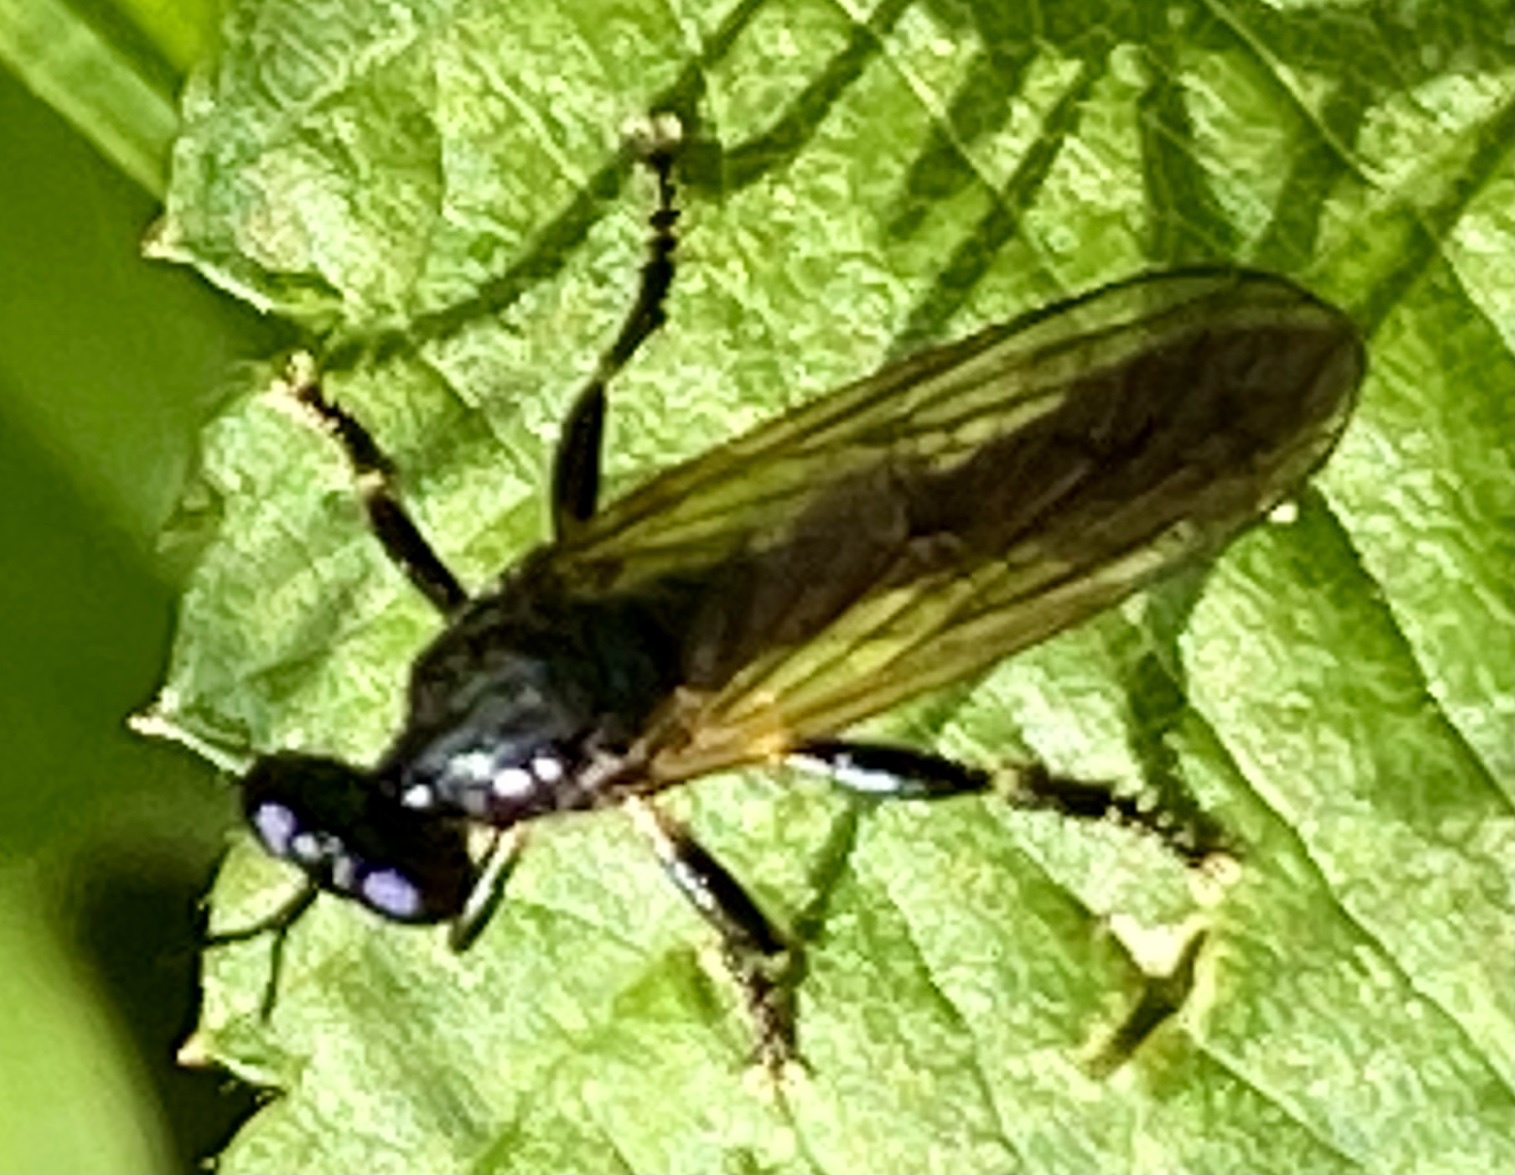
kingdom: Animalia
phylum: Arthropoda
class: Insecta
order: Diptera
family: Asilidae
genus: Dioctria
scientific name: Dioctria cothurnata
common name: Scarce red-legged robberfly
